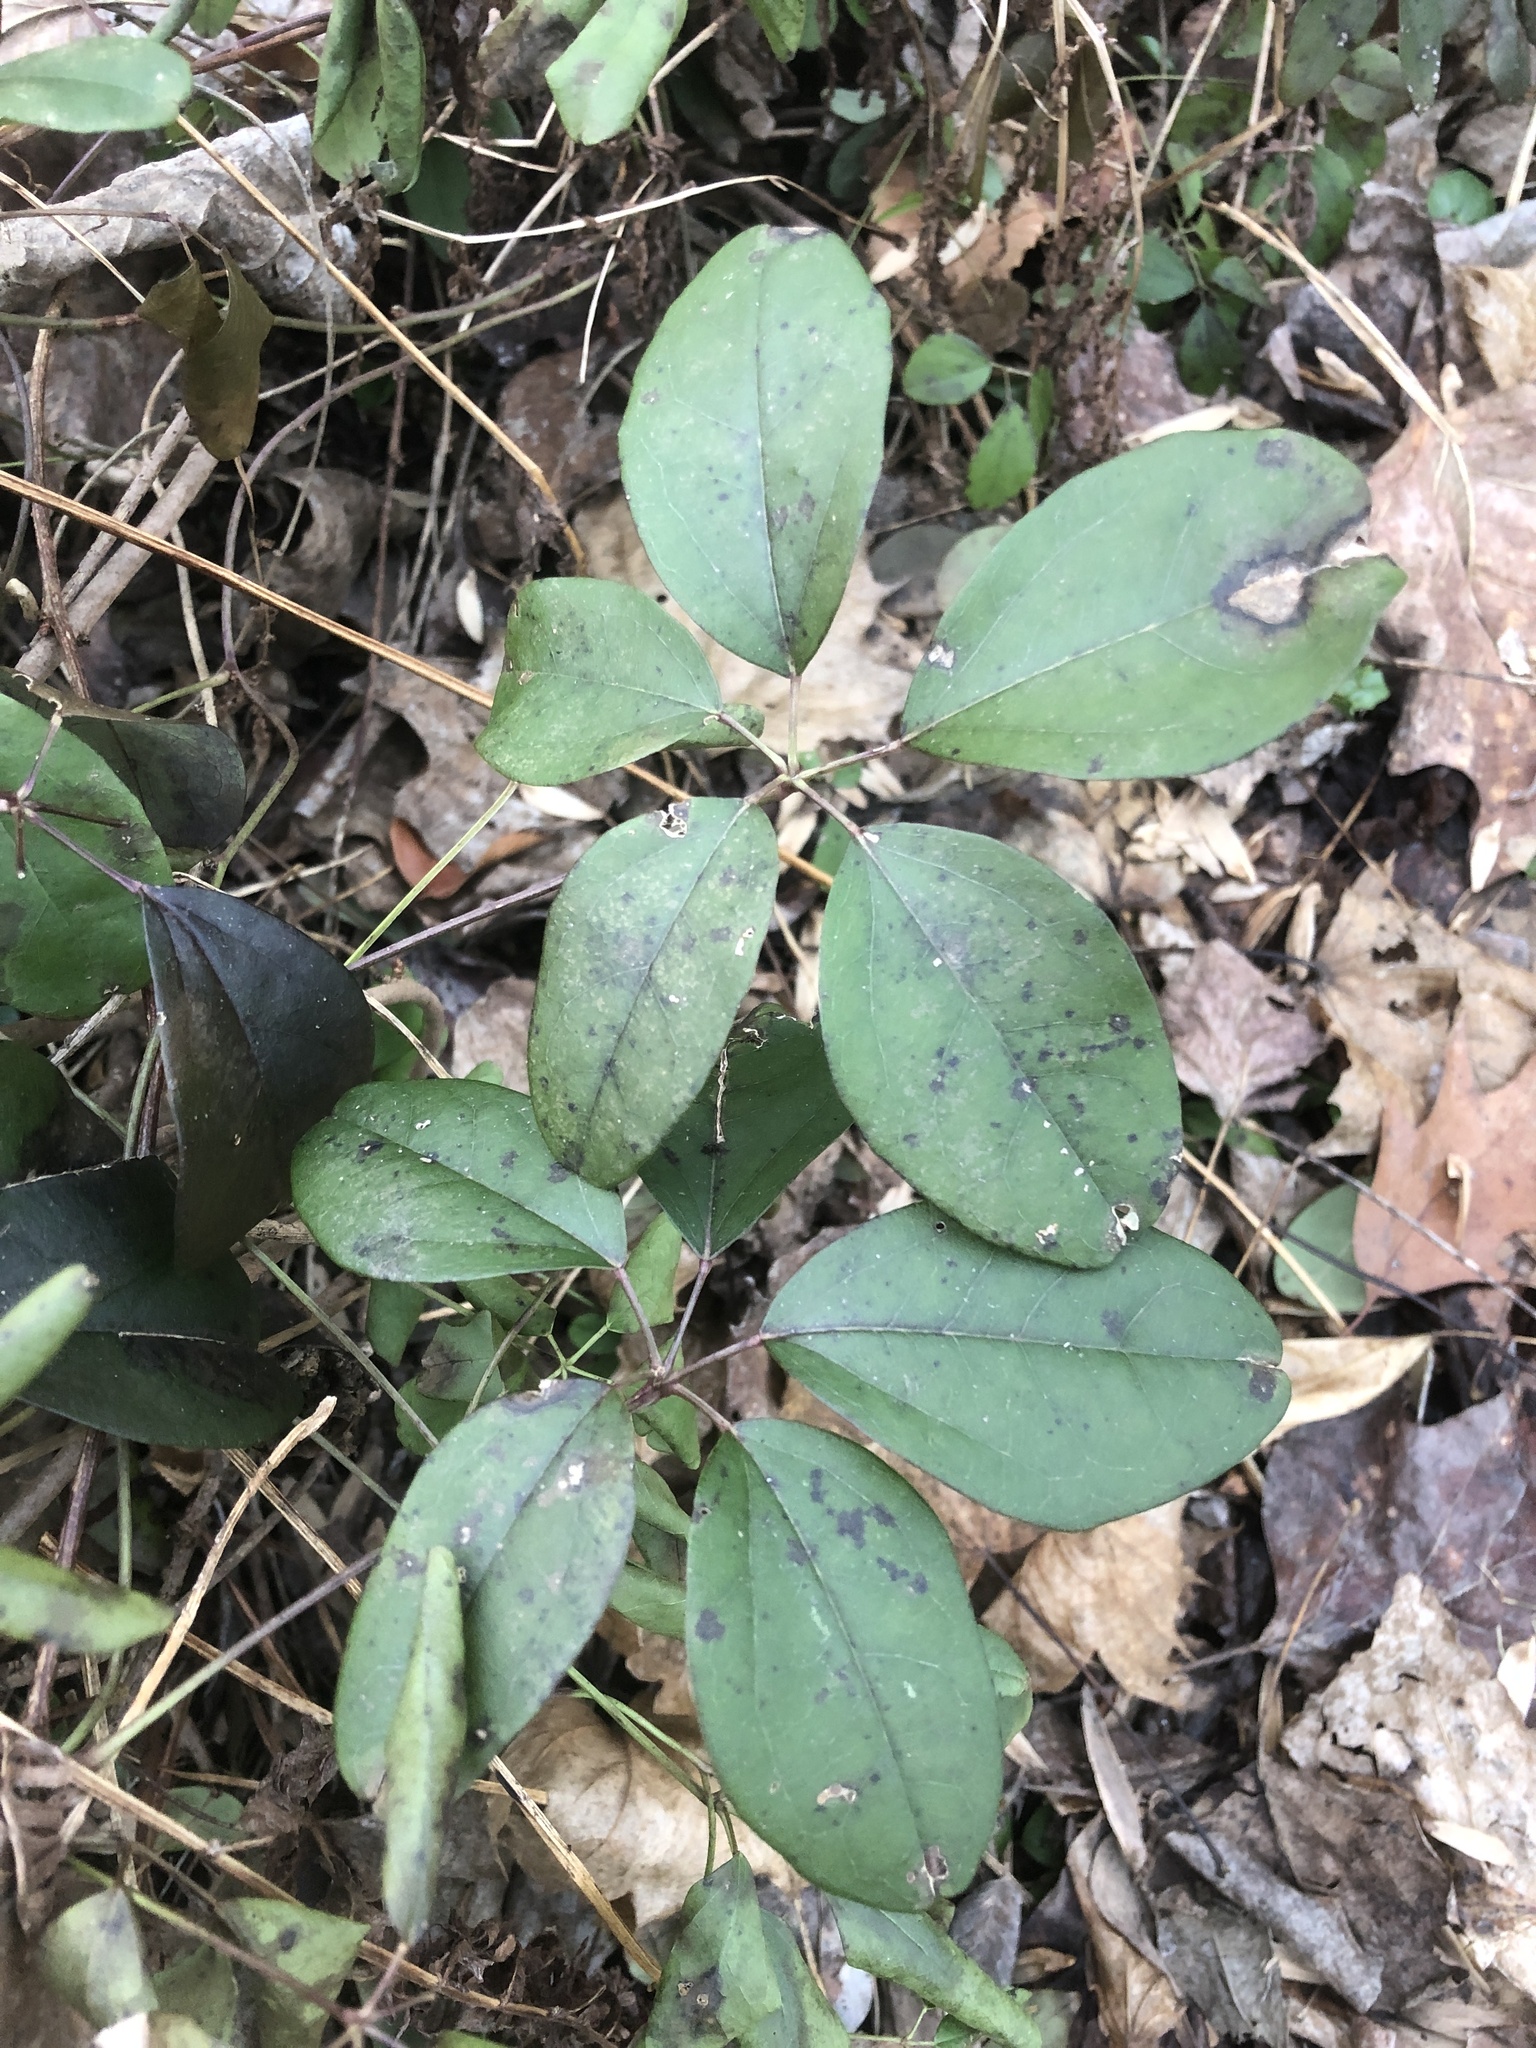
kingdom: Plantae
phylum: Tracheophyta
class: Magnoliopsida
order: Ranunculales
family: Lardizabalaceae
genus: Akebia
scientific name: Akebia quinata
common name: Five-leaf akebia
